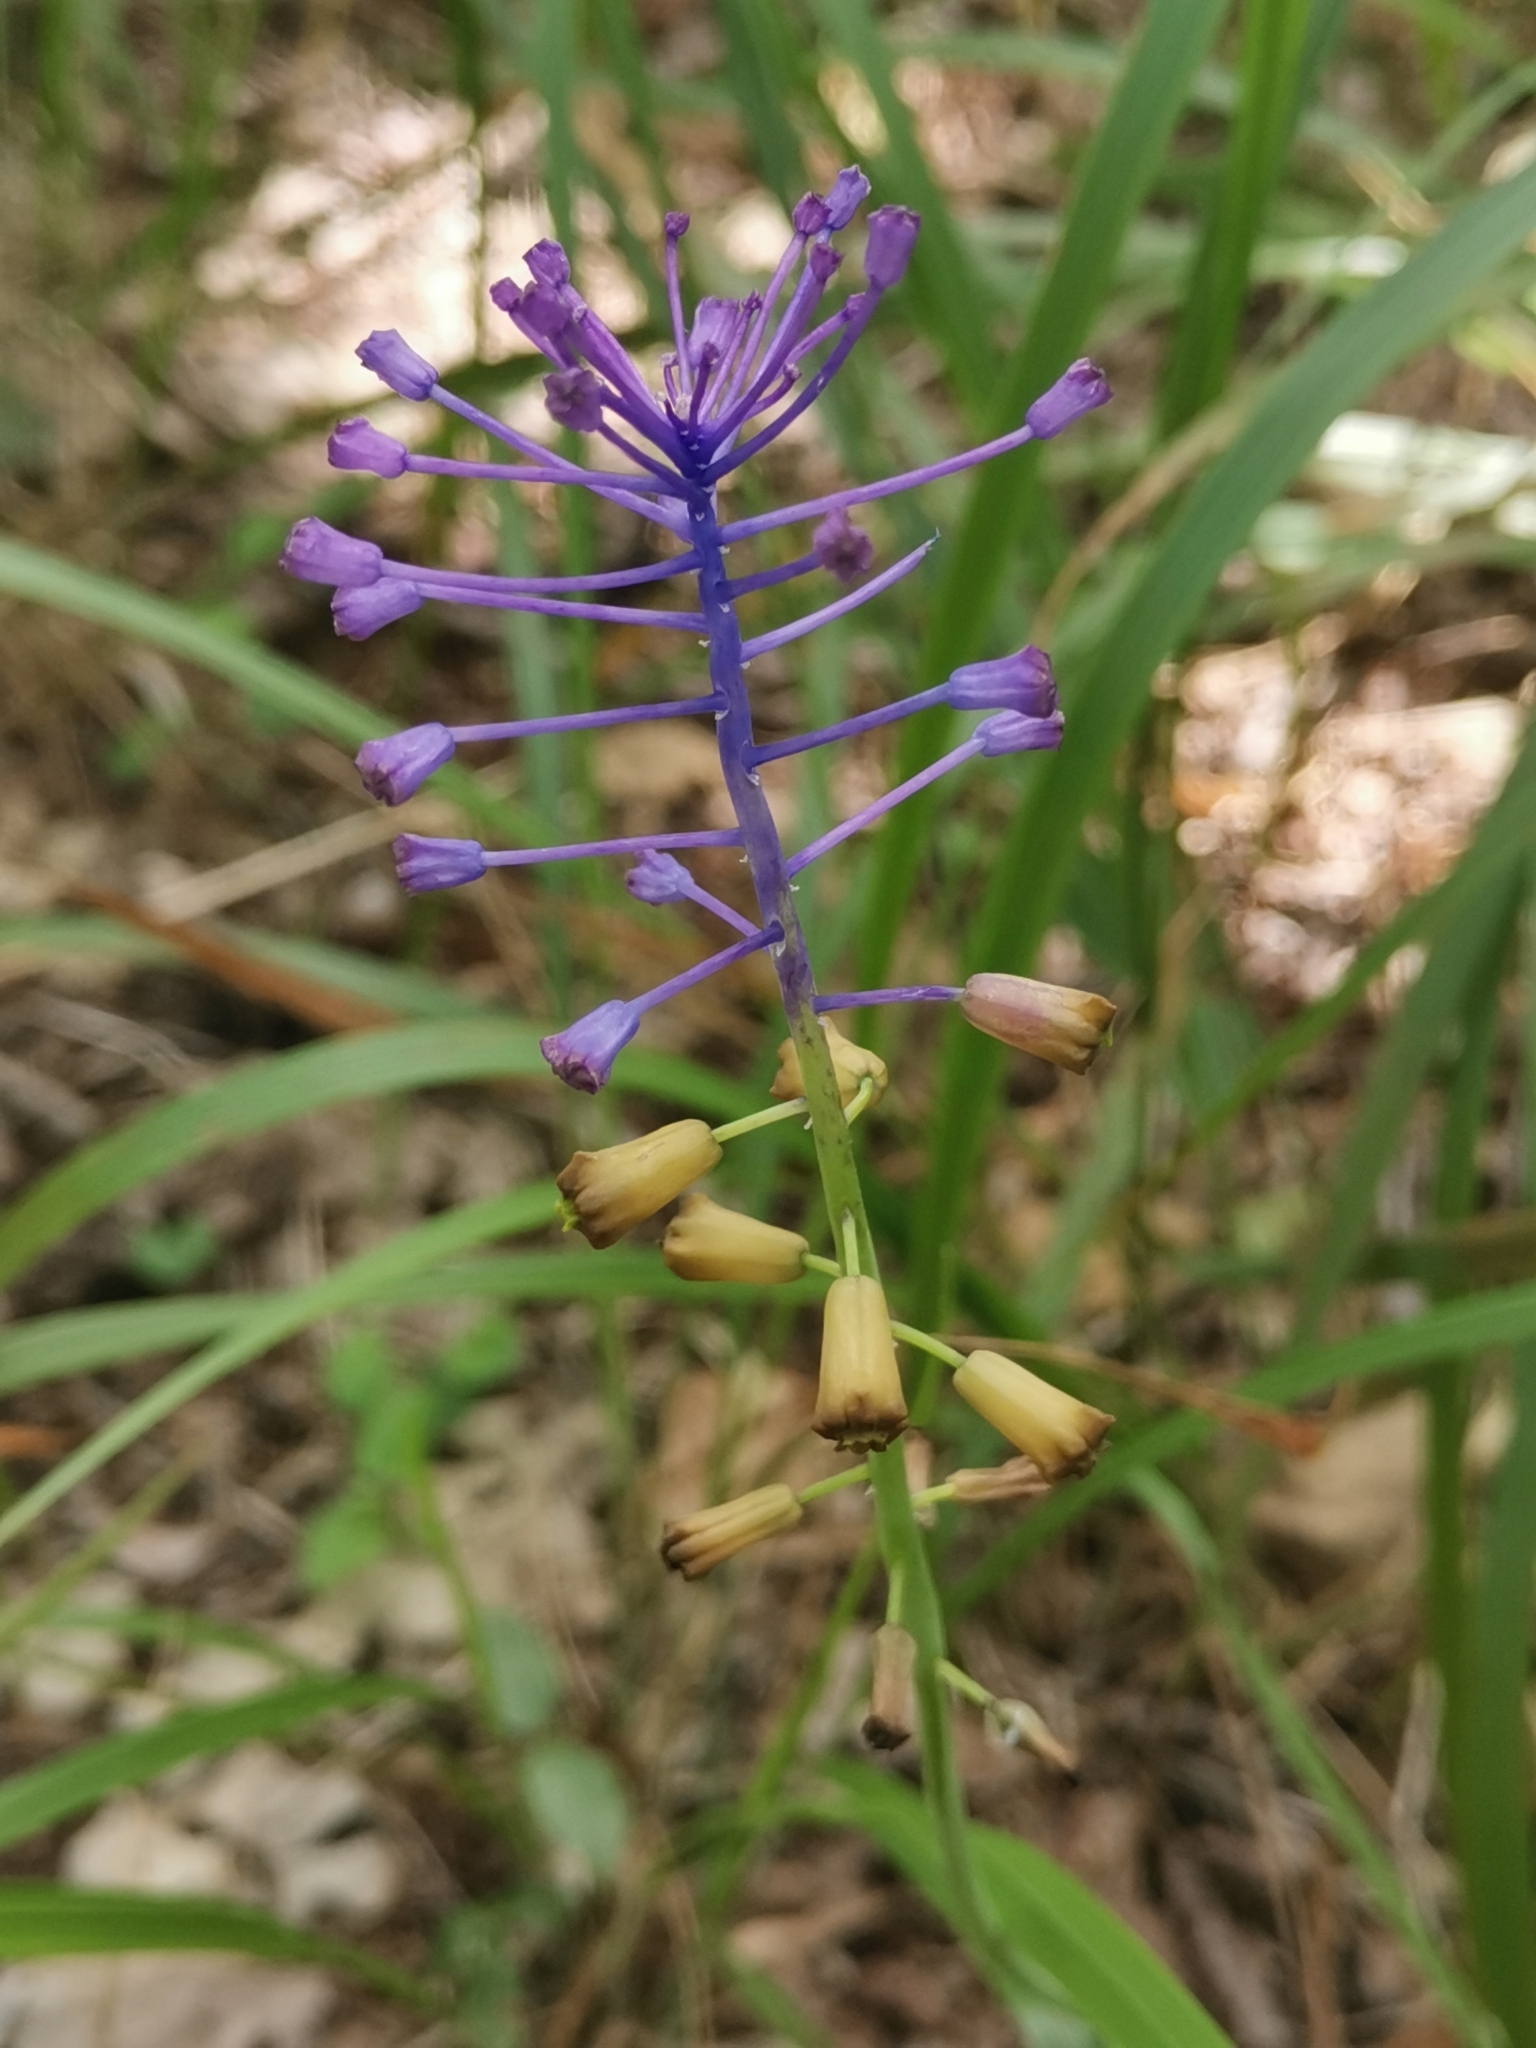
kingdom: Plantae
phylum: Tracheophyta
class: Liliopsida
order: Asparagales
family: Asparagaceae
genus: Muscari
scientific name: Muscari comosum
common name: Tassel hyacinth
